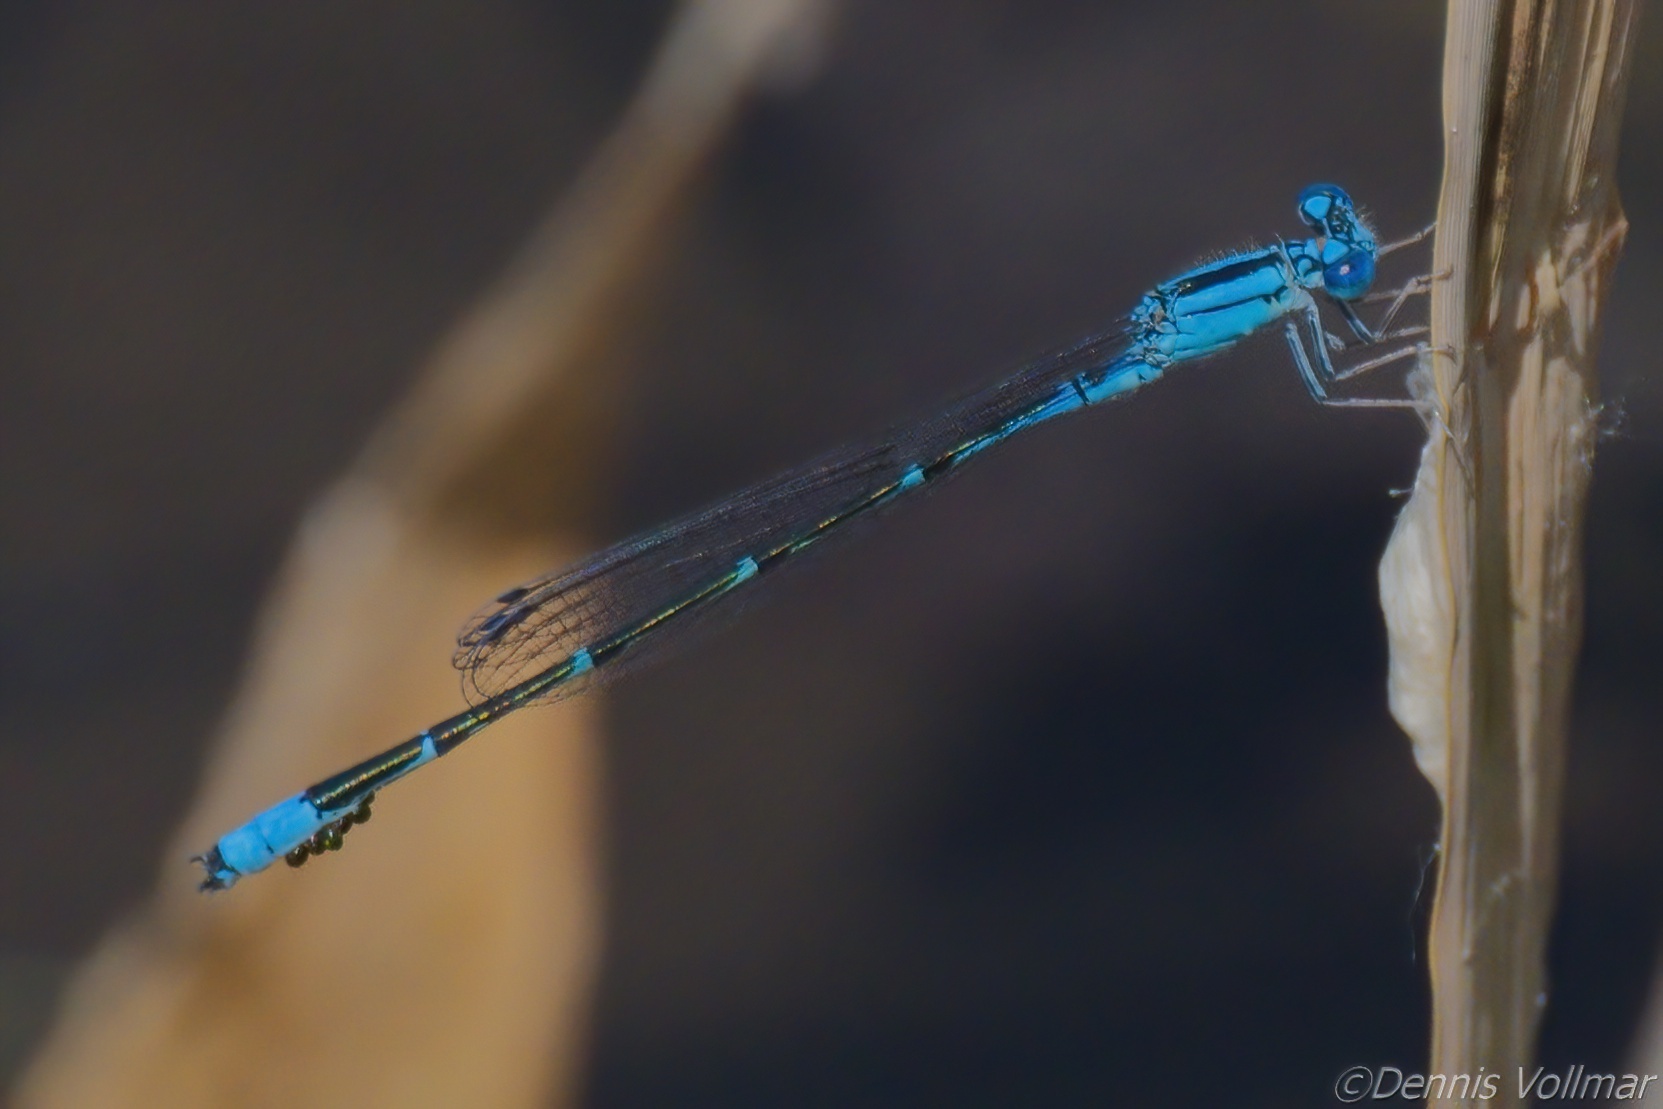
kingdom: Animalia
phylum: Arthropoda
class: Insecta
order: Odonata
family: Coenagrionidae
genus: Enallagma
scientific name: Enallagma traviatum
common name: Slender bluet
